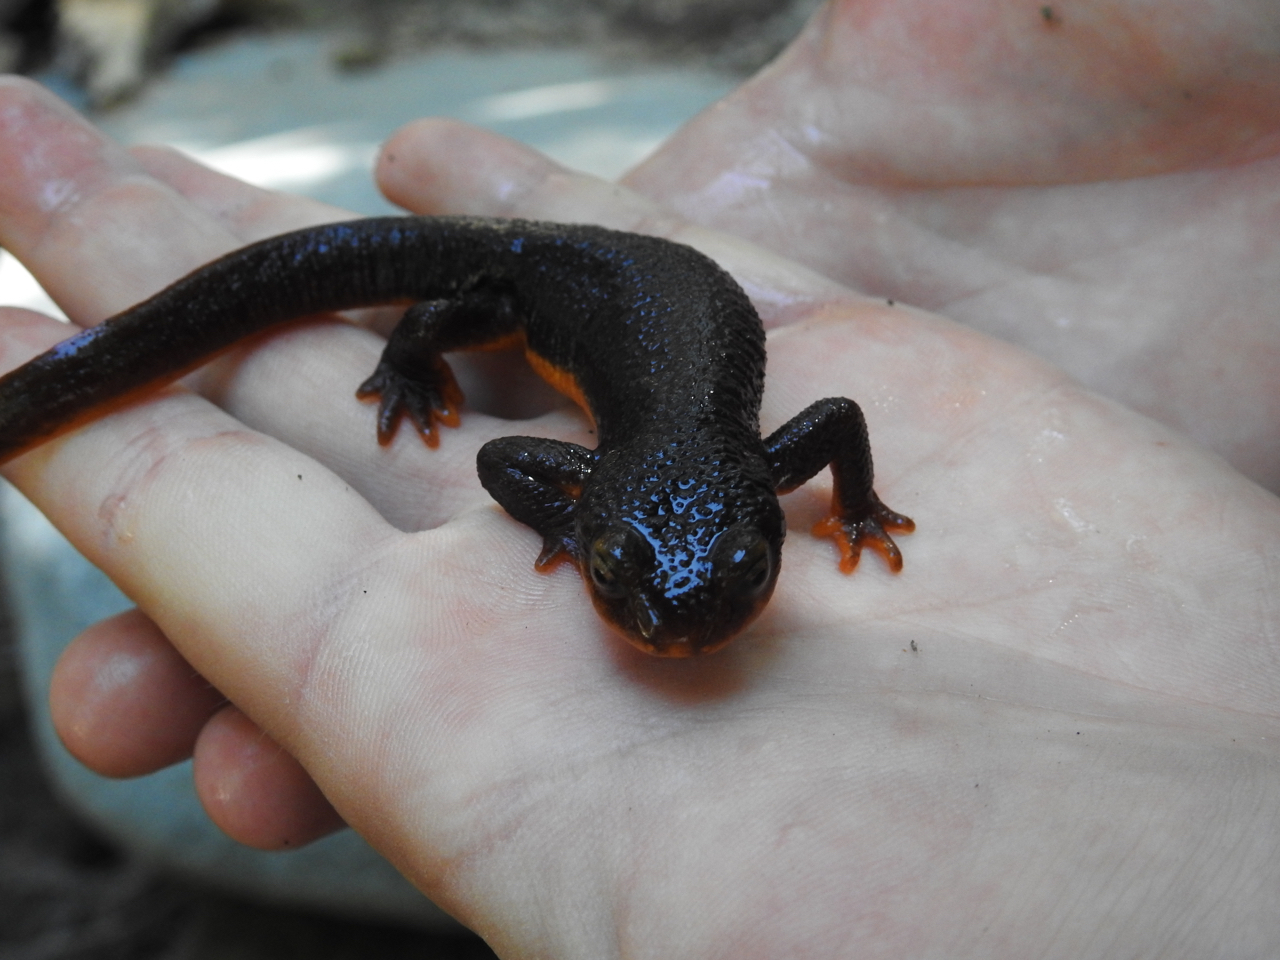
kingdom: Animalia
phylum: Chordata
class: Amphibia
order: Caudata
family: Salamandridae
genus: Taricha
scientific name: Taricha torosa
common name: California newt
